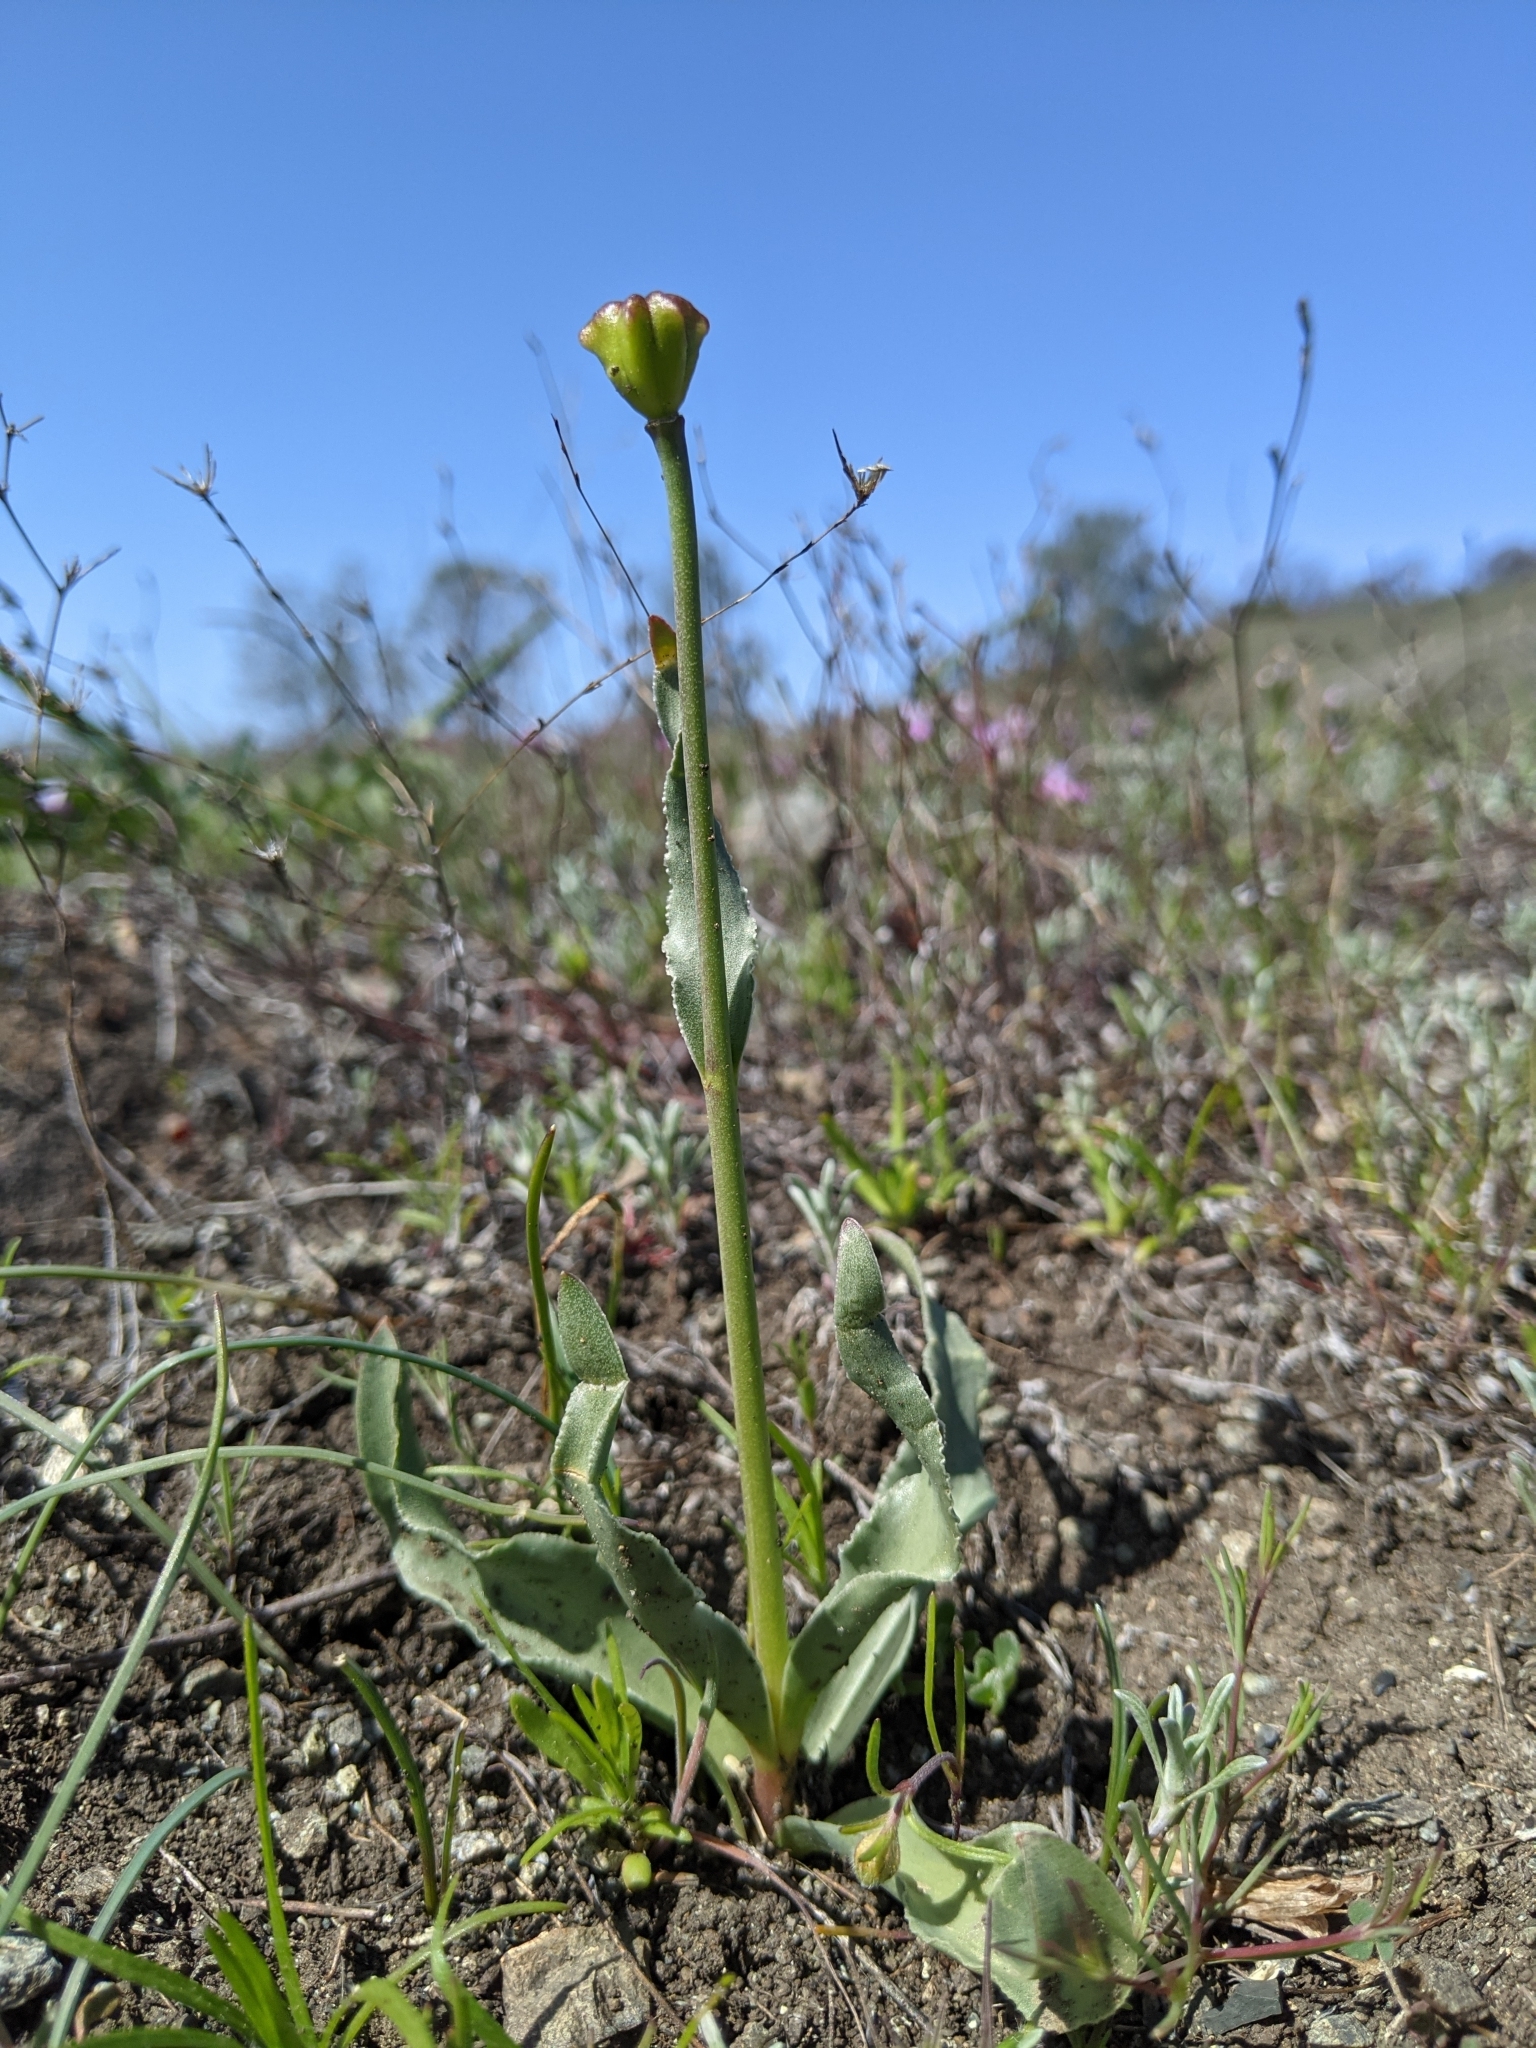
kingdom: Plantae
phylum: Tracheophyta
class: Liliopsida
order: Liliales
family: Liliaceae
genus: Fritillaria
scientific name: Fritillaria pluriflora
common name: Adobe-lily
